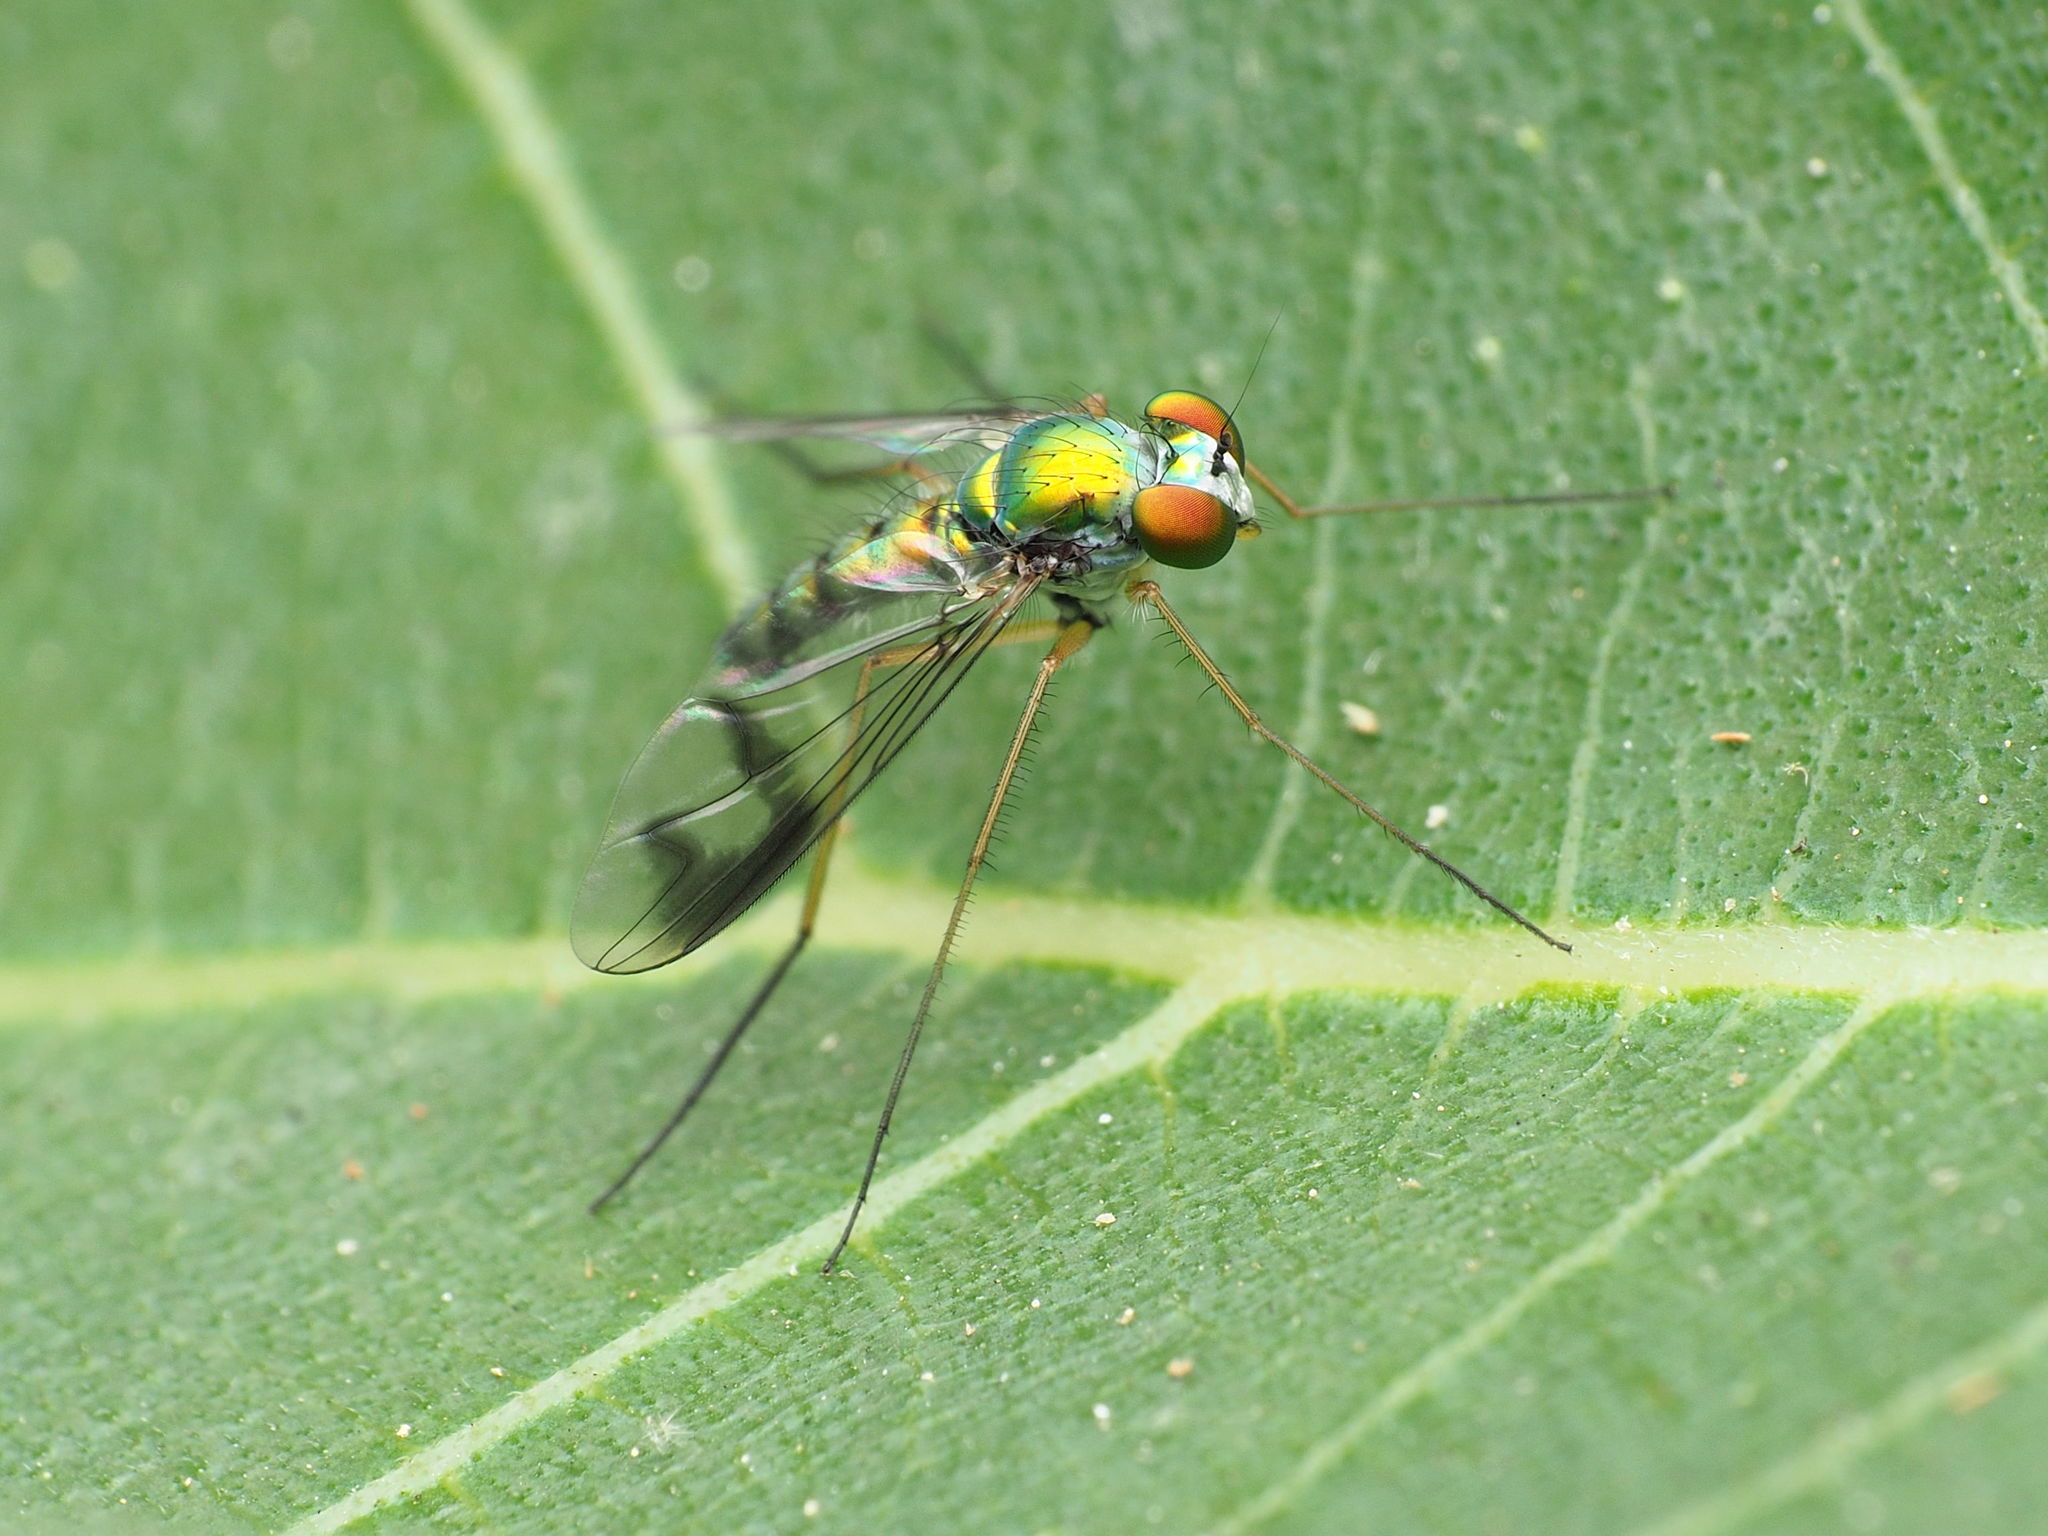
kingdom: Animalia
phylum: Arthropoda
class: Insecta
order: Diptera
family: Dolichopodidae
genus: Condylostylus
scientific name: Condylostylus
